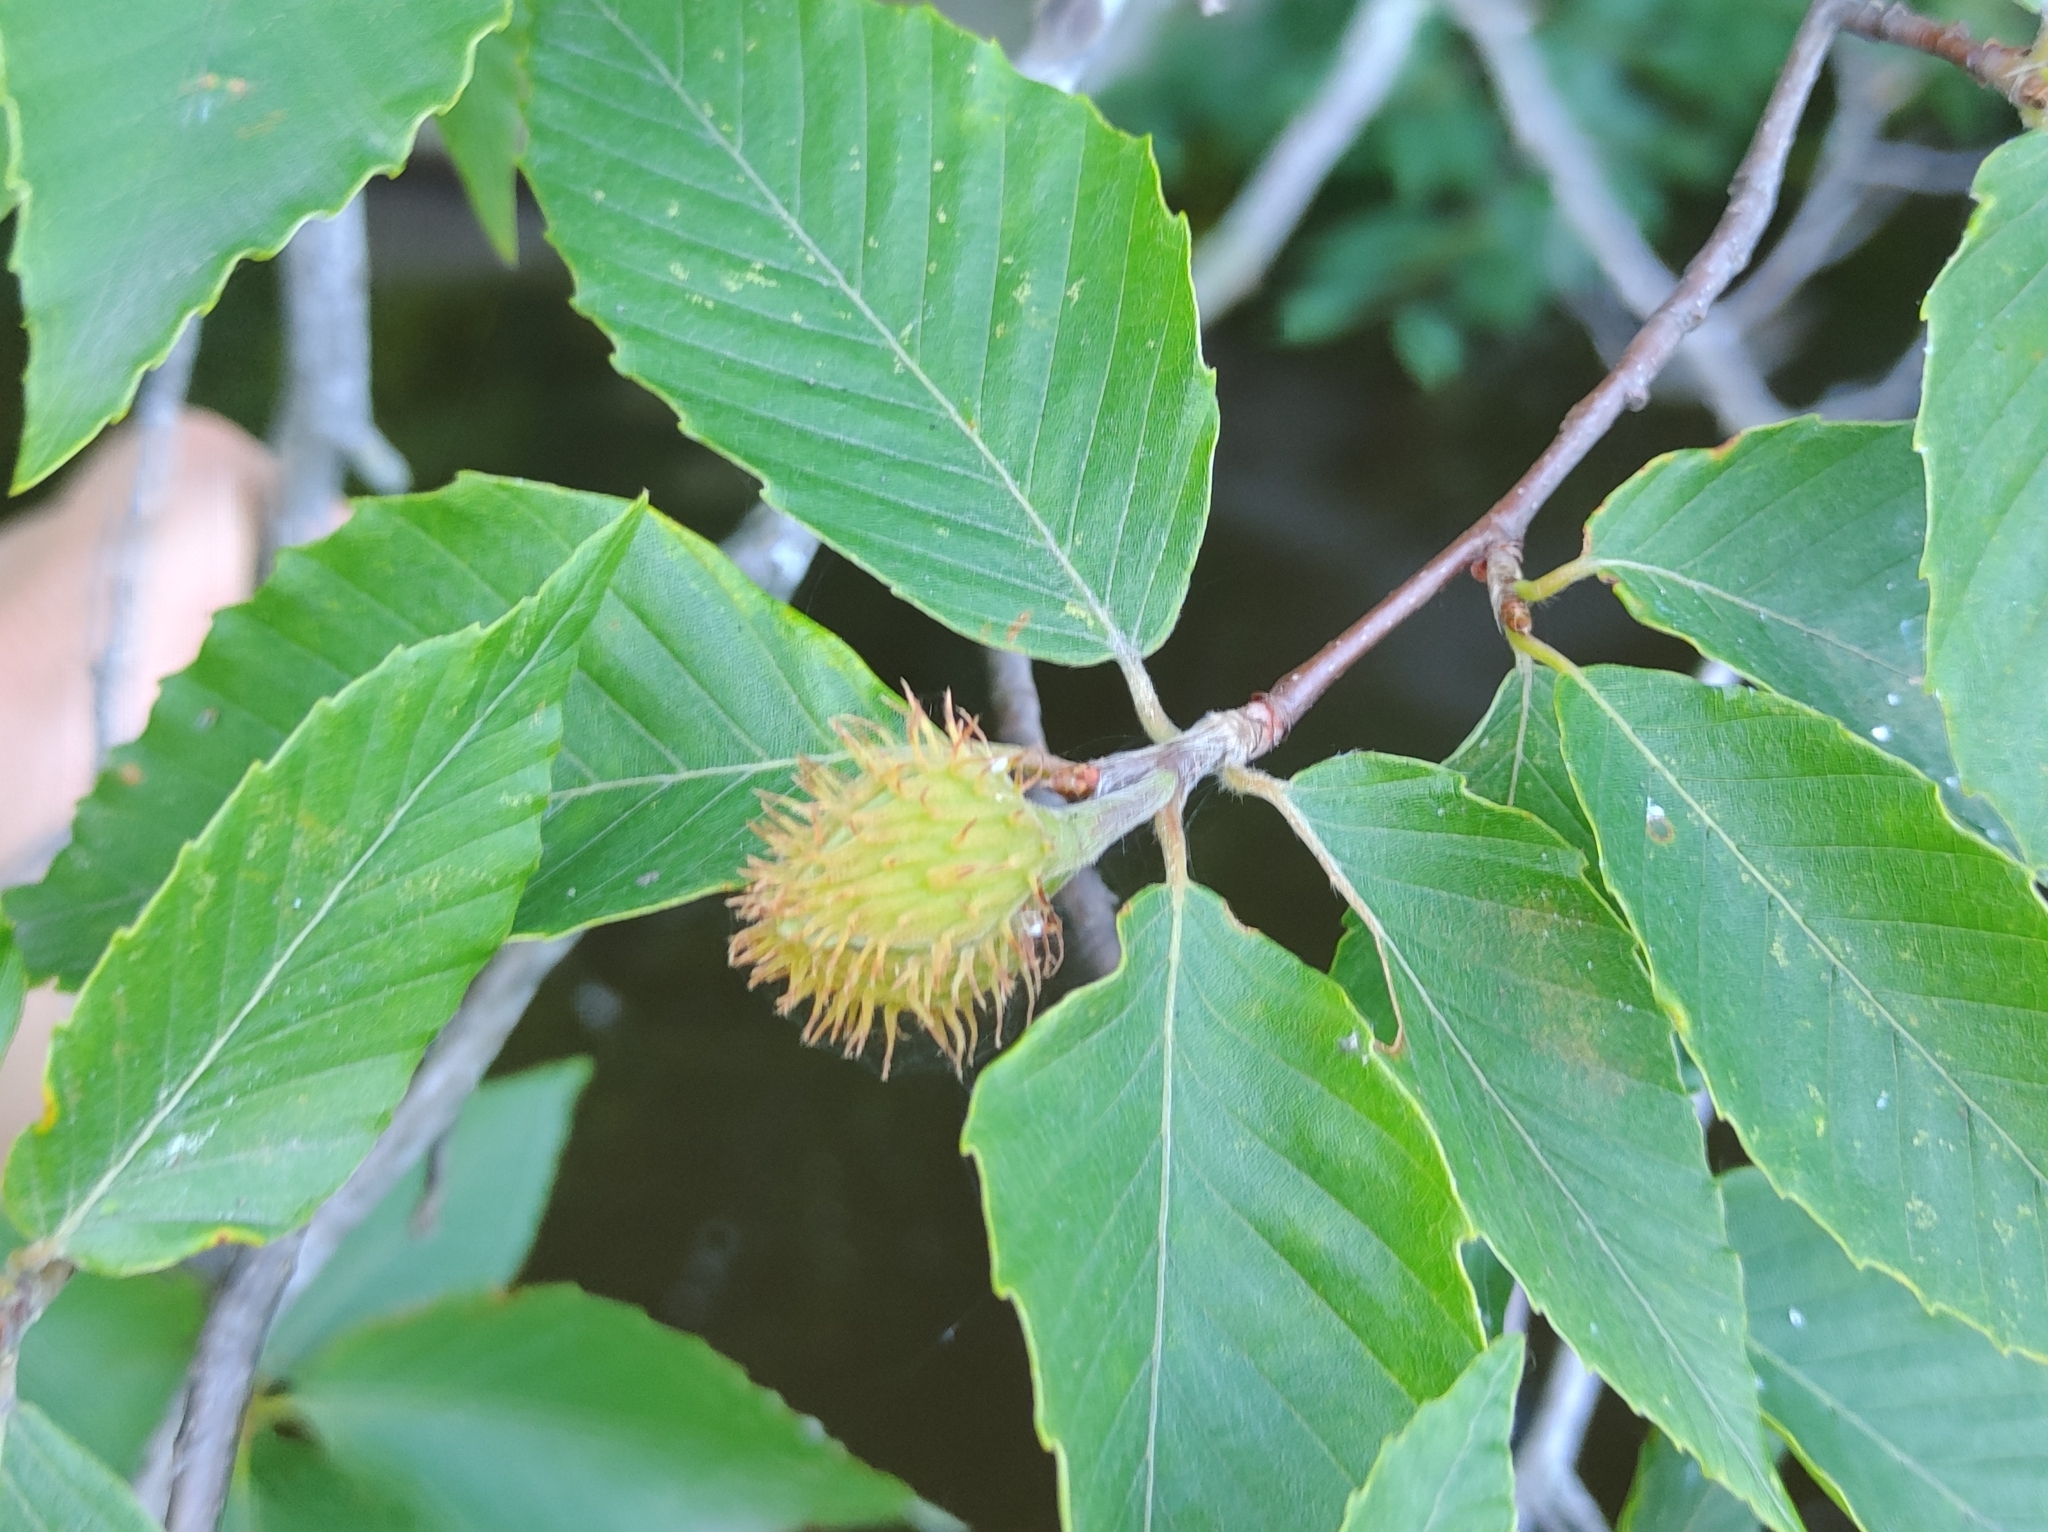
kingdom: Plantae
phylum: Tracheophyta
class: Magnoliopsida
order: Fagales
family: Fagaceae
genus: Fagus
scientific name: Fagus grandifolia
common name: American beech
